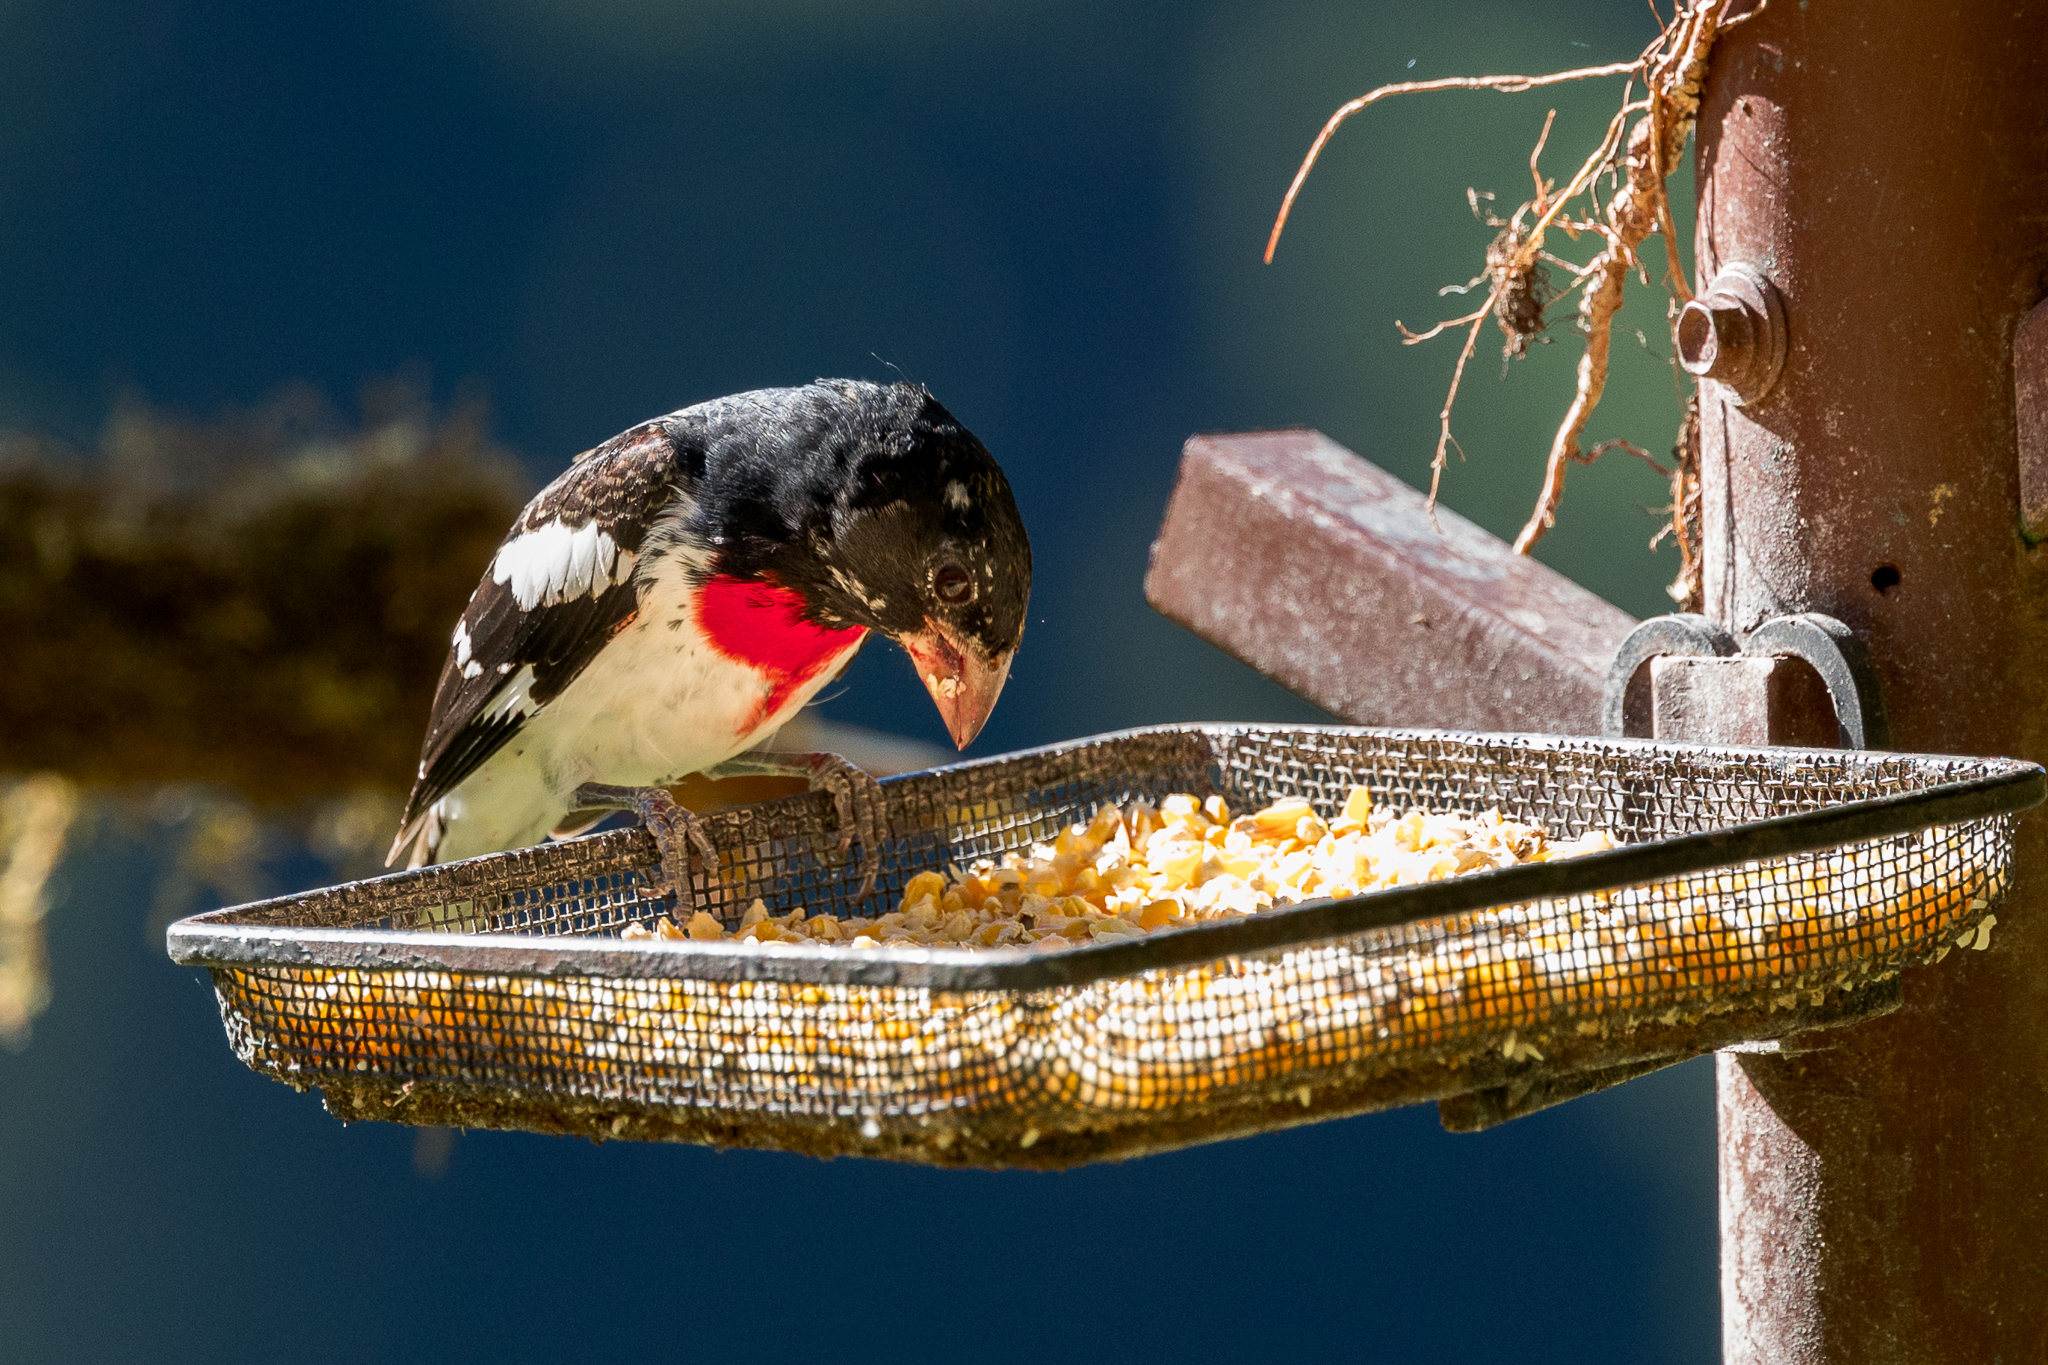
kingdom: Animalia
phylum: Chordata
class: Aves
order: Passeriformes
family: Cardinalidae
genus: Pheucticus
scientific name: Pheucticus ludovicianus
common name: Rose-breasted grosbeak
